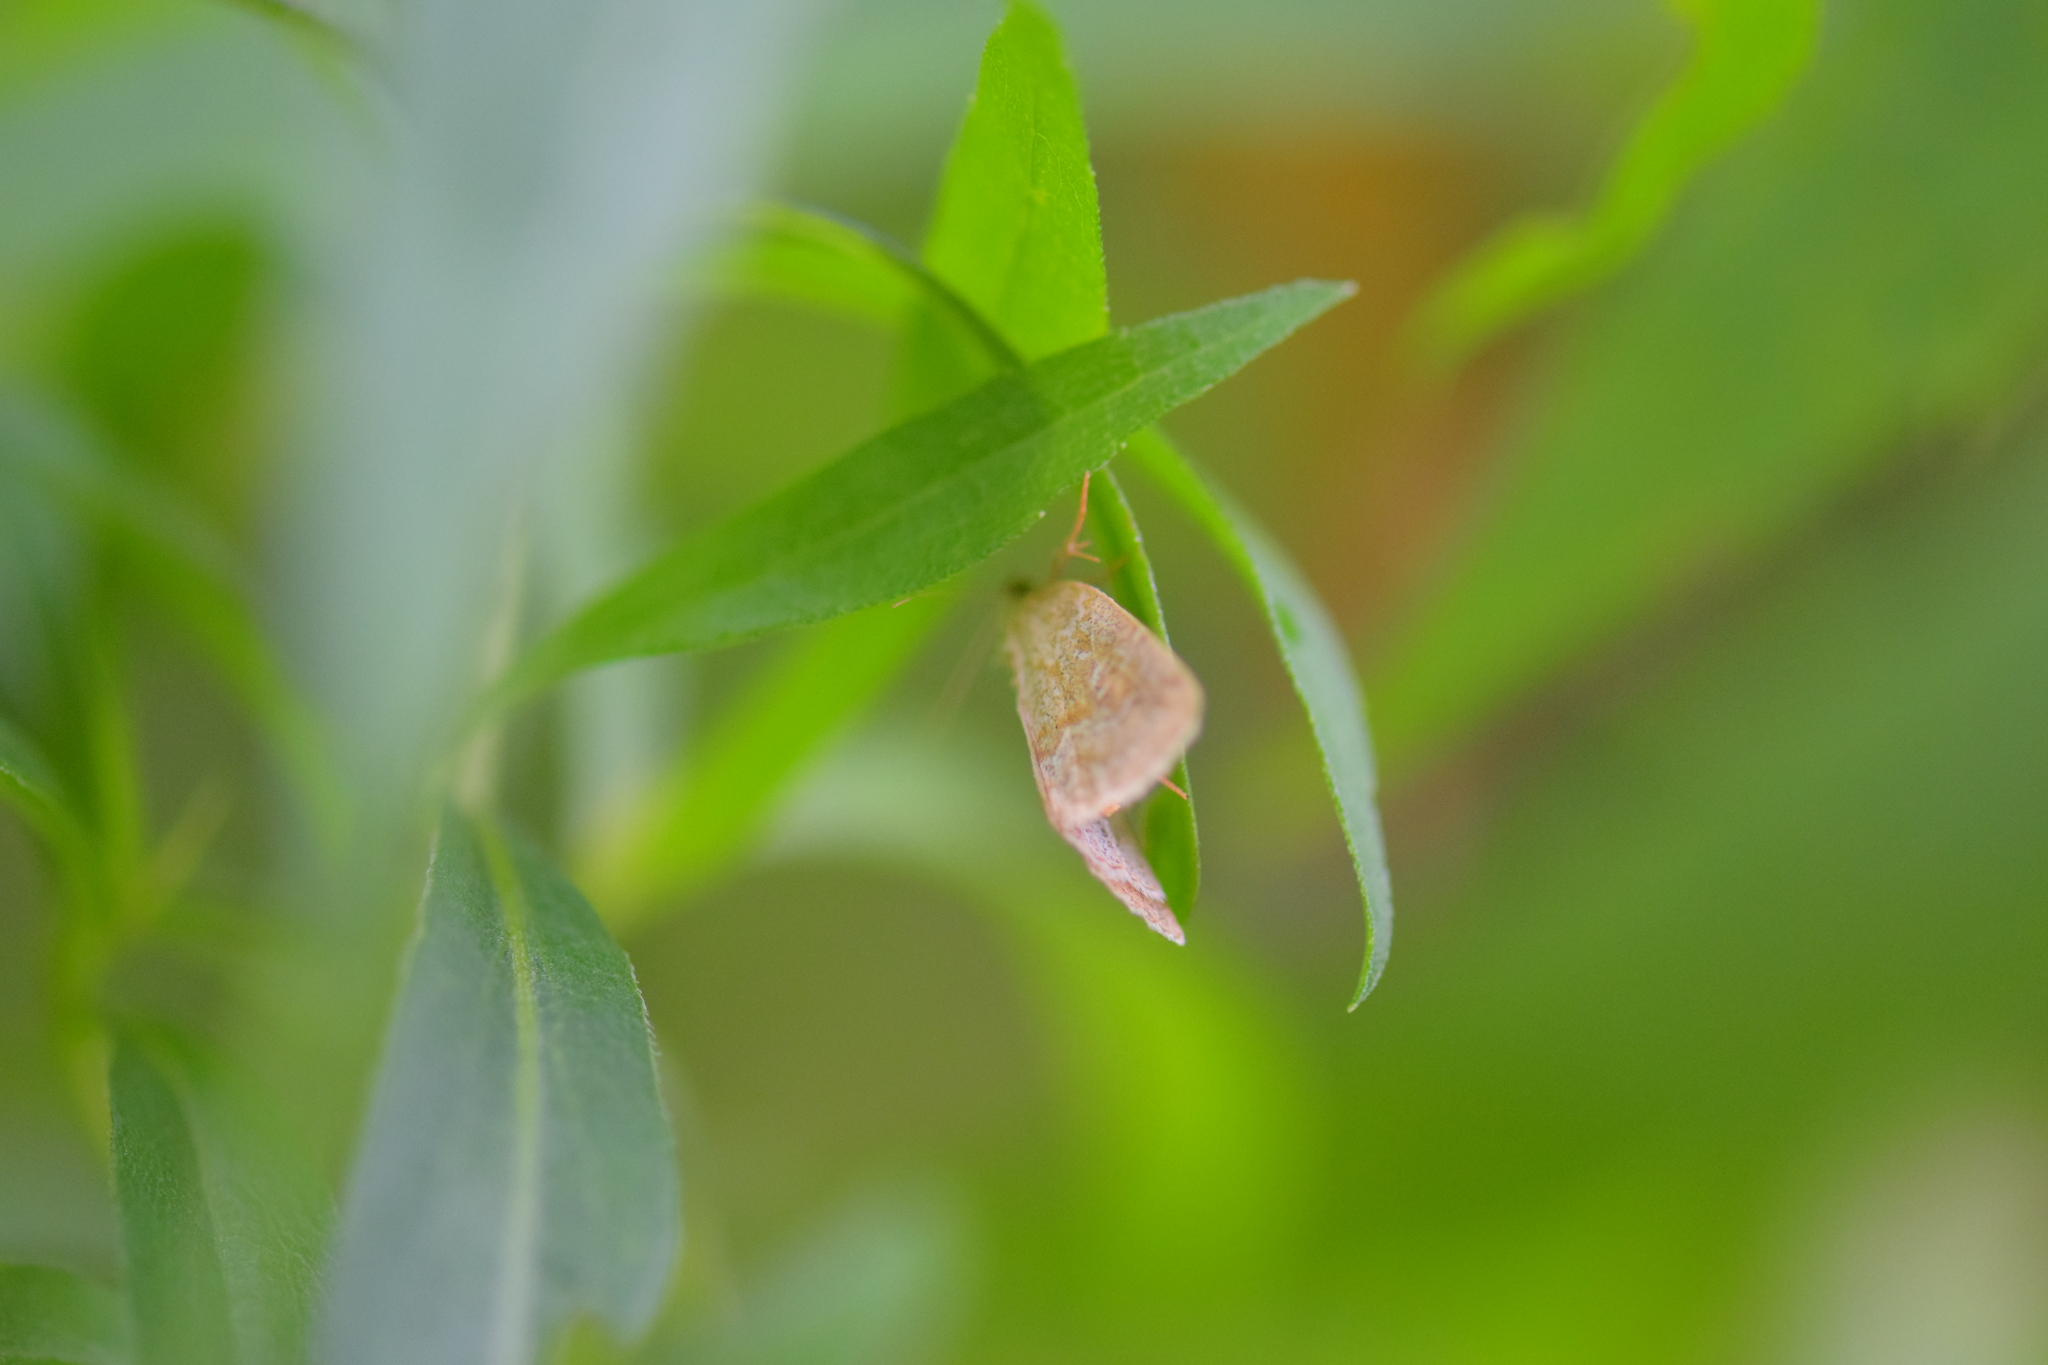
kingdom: Animalia
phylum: Arthropoda
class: Insecta
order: Lepidoptera
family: Noctuidae
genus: Protodeltote
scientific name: Protodeltote albidula
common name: Pale glyph
